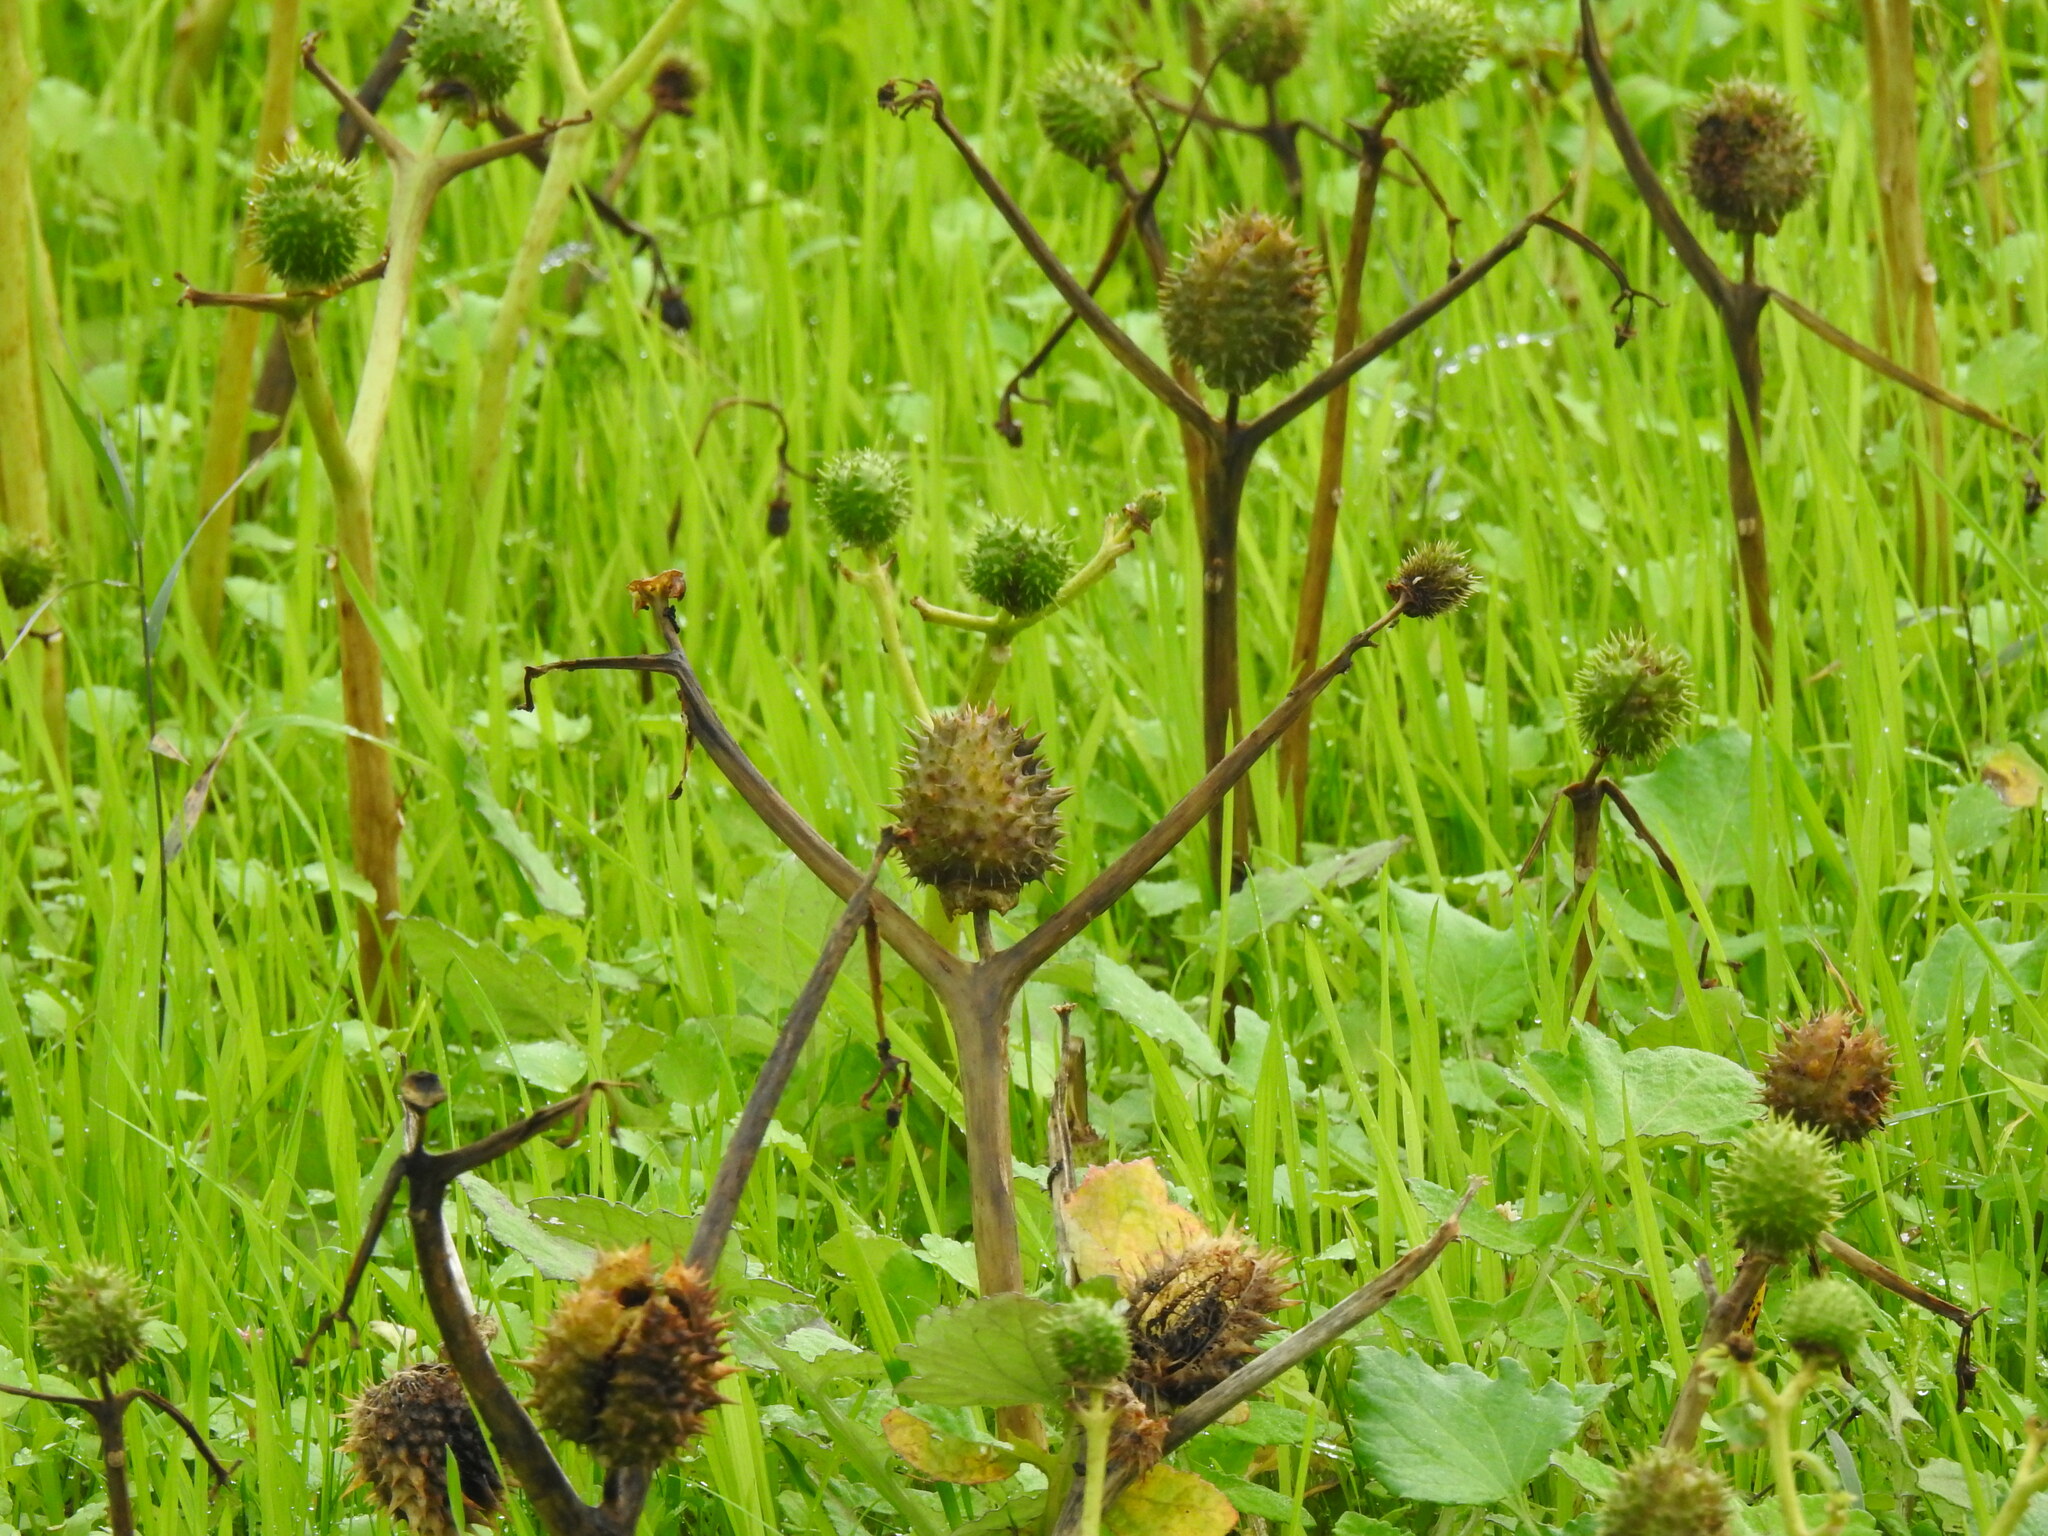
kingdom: Plantae
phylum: Tracheophyta
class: Magnoliopsida
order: Solanales
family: Solanaceae
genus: Datura
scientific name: Datura stramonium
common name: Thorn-apple
